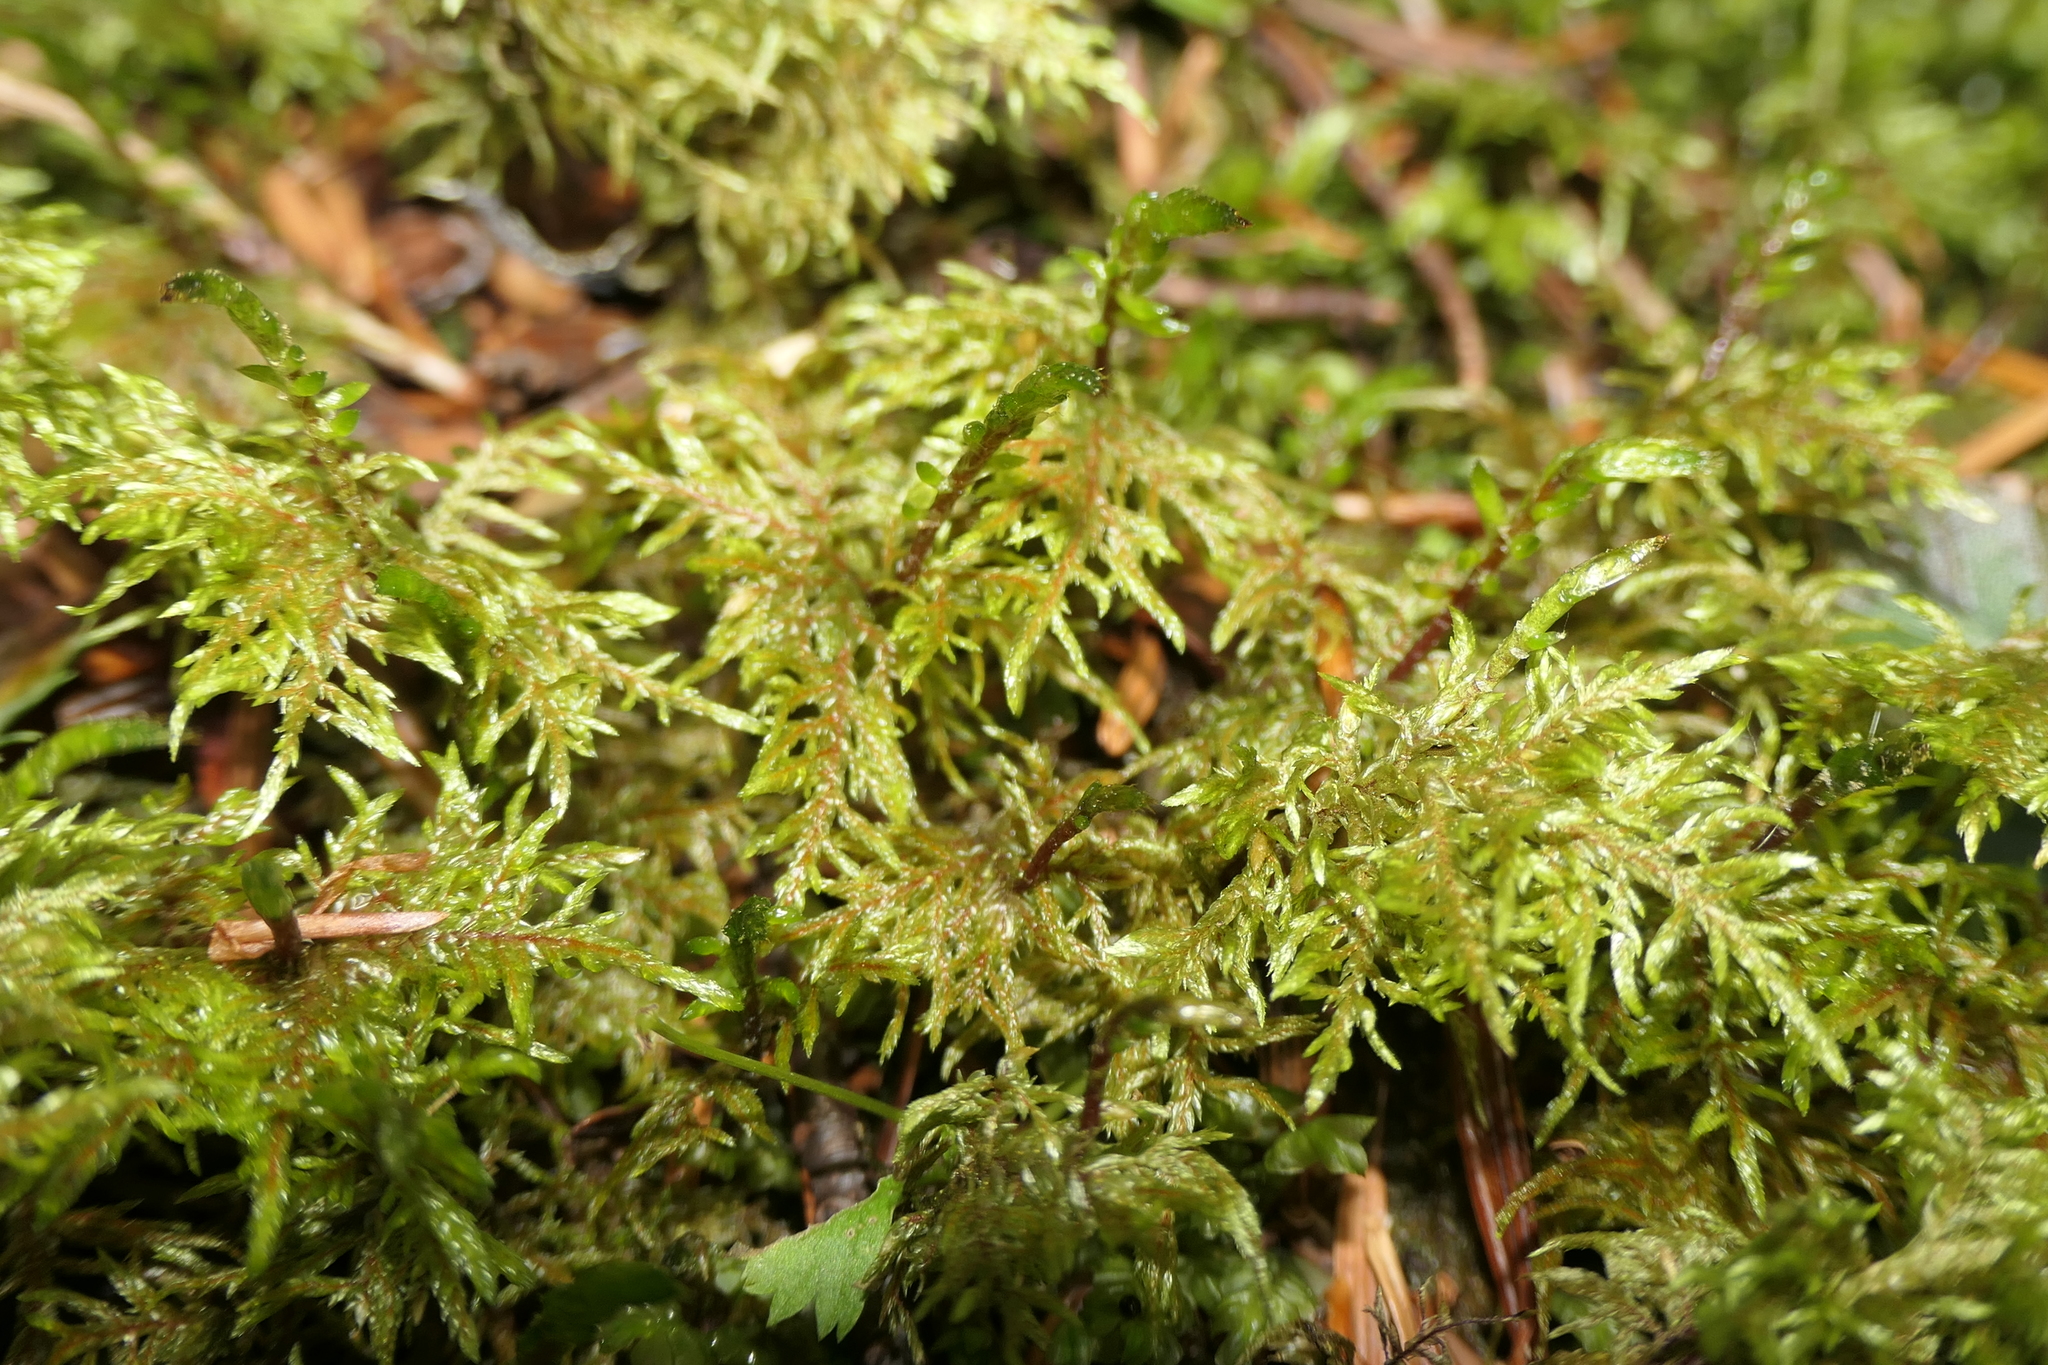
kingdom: Plantae
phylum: Bryophyta
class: Bryopsida
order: Hypnales
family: Hylocomiaceae
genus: Hylocomium
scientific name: Hylocomium splendens
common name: Stairstep moss
